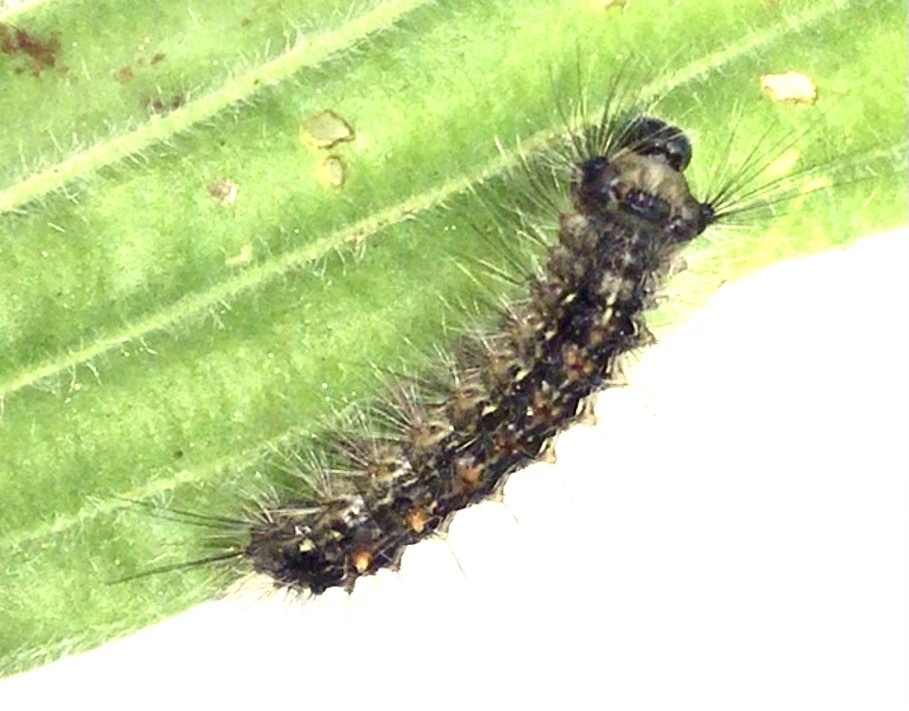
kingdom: Animalia
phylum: Arthropoda
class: Insecta
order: Lepidoptera
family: Erebidae
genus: Lymantria
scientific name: Lymantria dispar
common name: Gypsy moth
